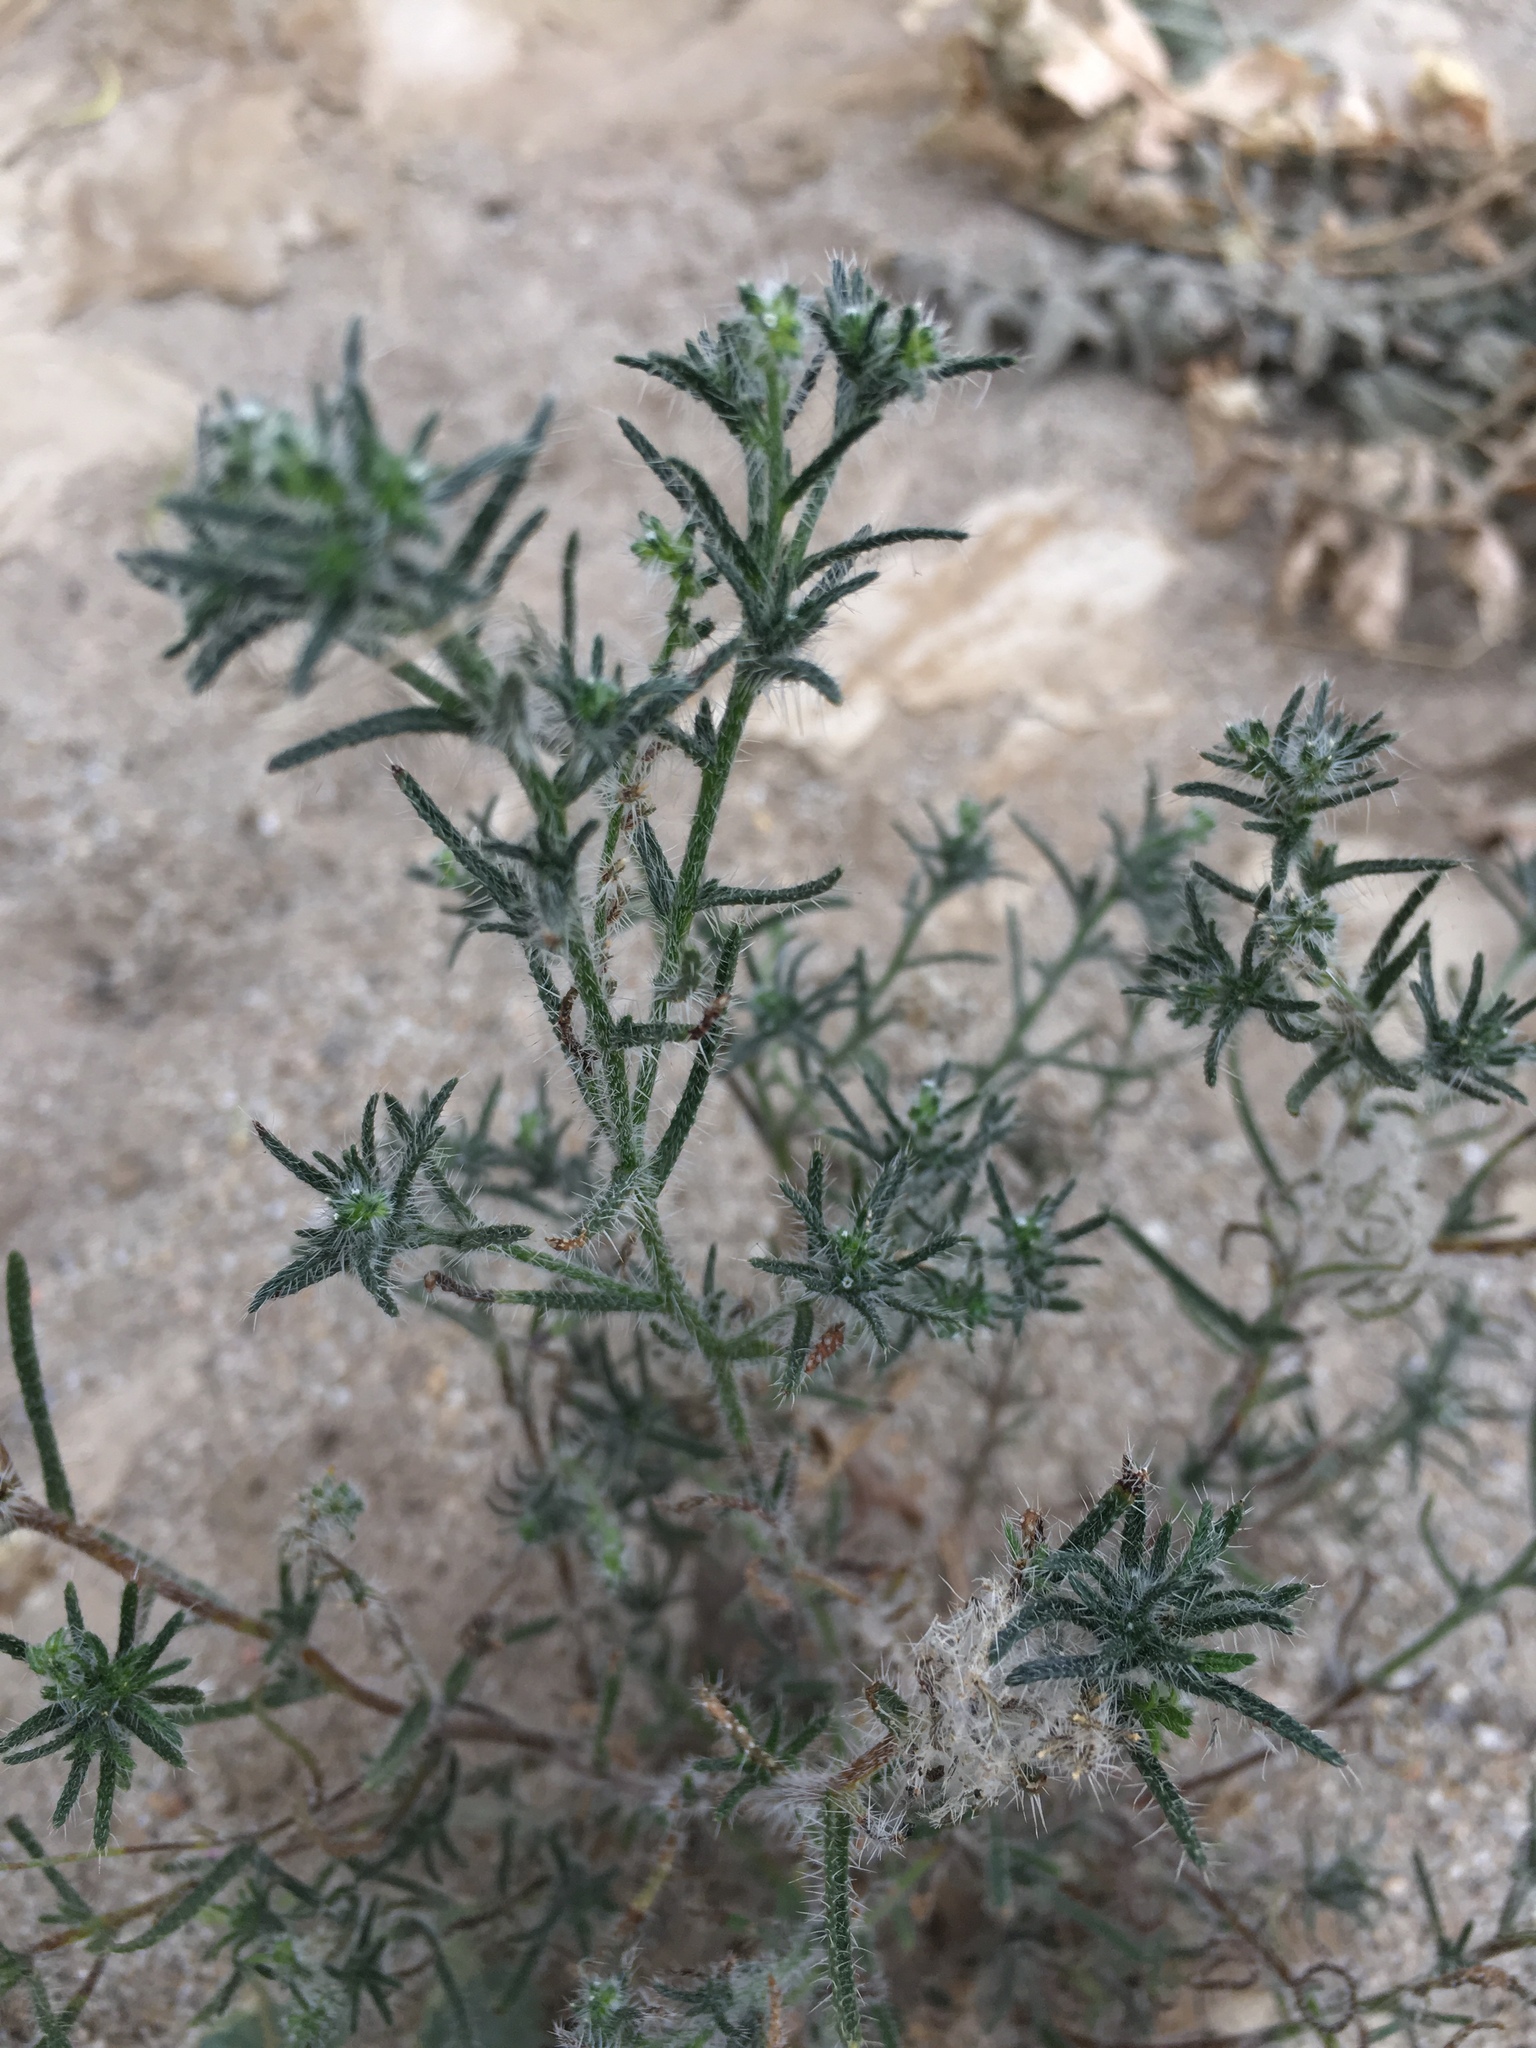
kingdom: Plantae
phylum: Tracheophyta
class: Magnoliopsida
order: Boraginales
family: Boraginaceae
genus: Cryptantha
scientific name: Cryptantha maritima
